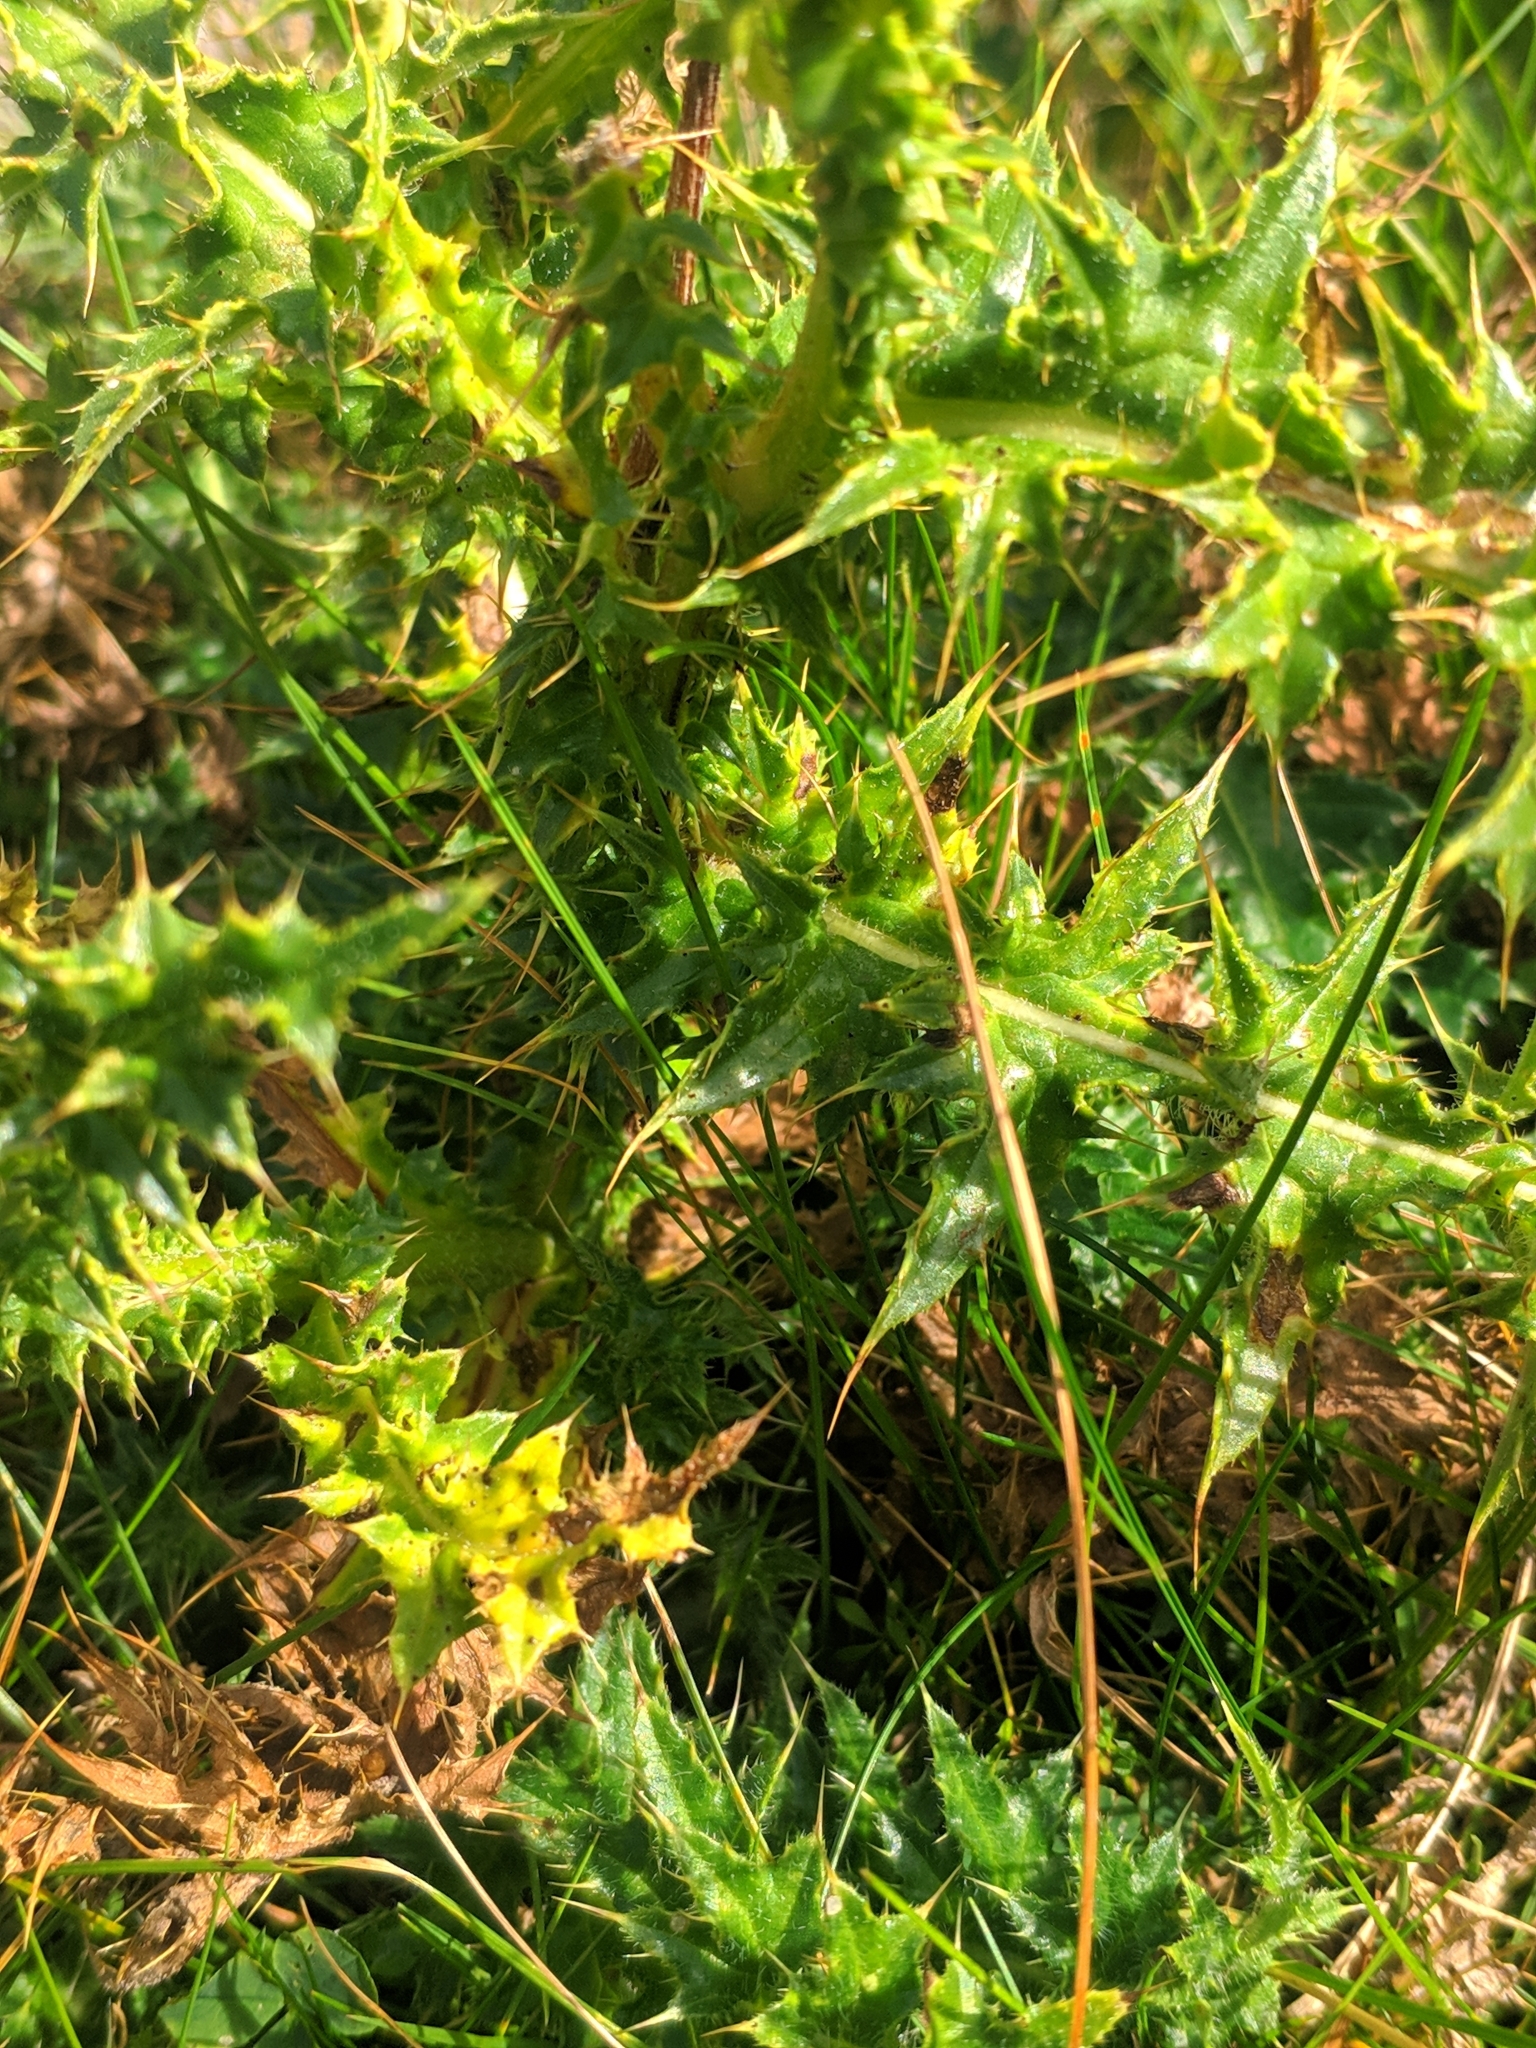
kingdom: Plantae
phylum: Tracheophyta
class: Magnoliopsida
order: Asterales
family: Asteraceae
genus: Carduus
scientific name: Carduus carlinifolius
